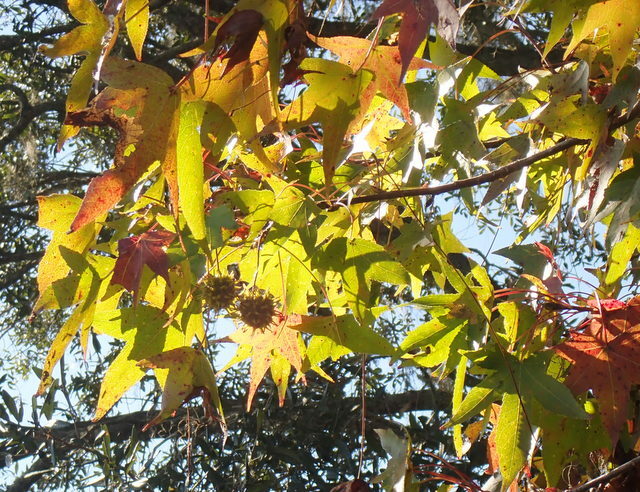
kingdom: Plantae
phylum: Tracheophyta
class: Magnoliopsida
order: Saxifragales
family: Altingiaceae
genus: Liquidambar
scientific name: Liquidambar styraciflua
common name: Sweet gum
